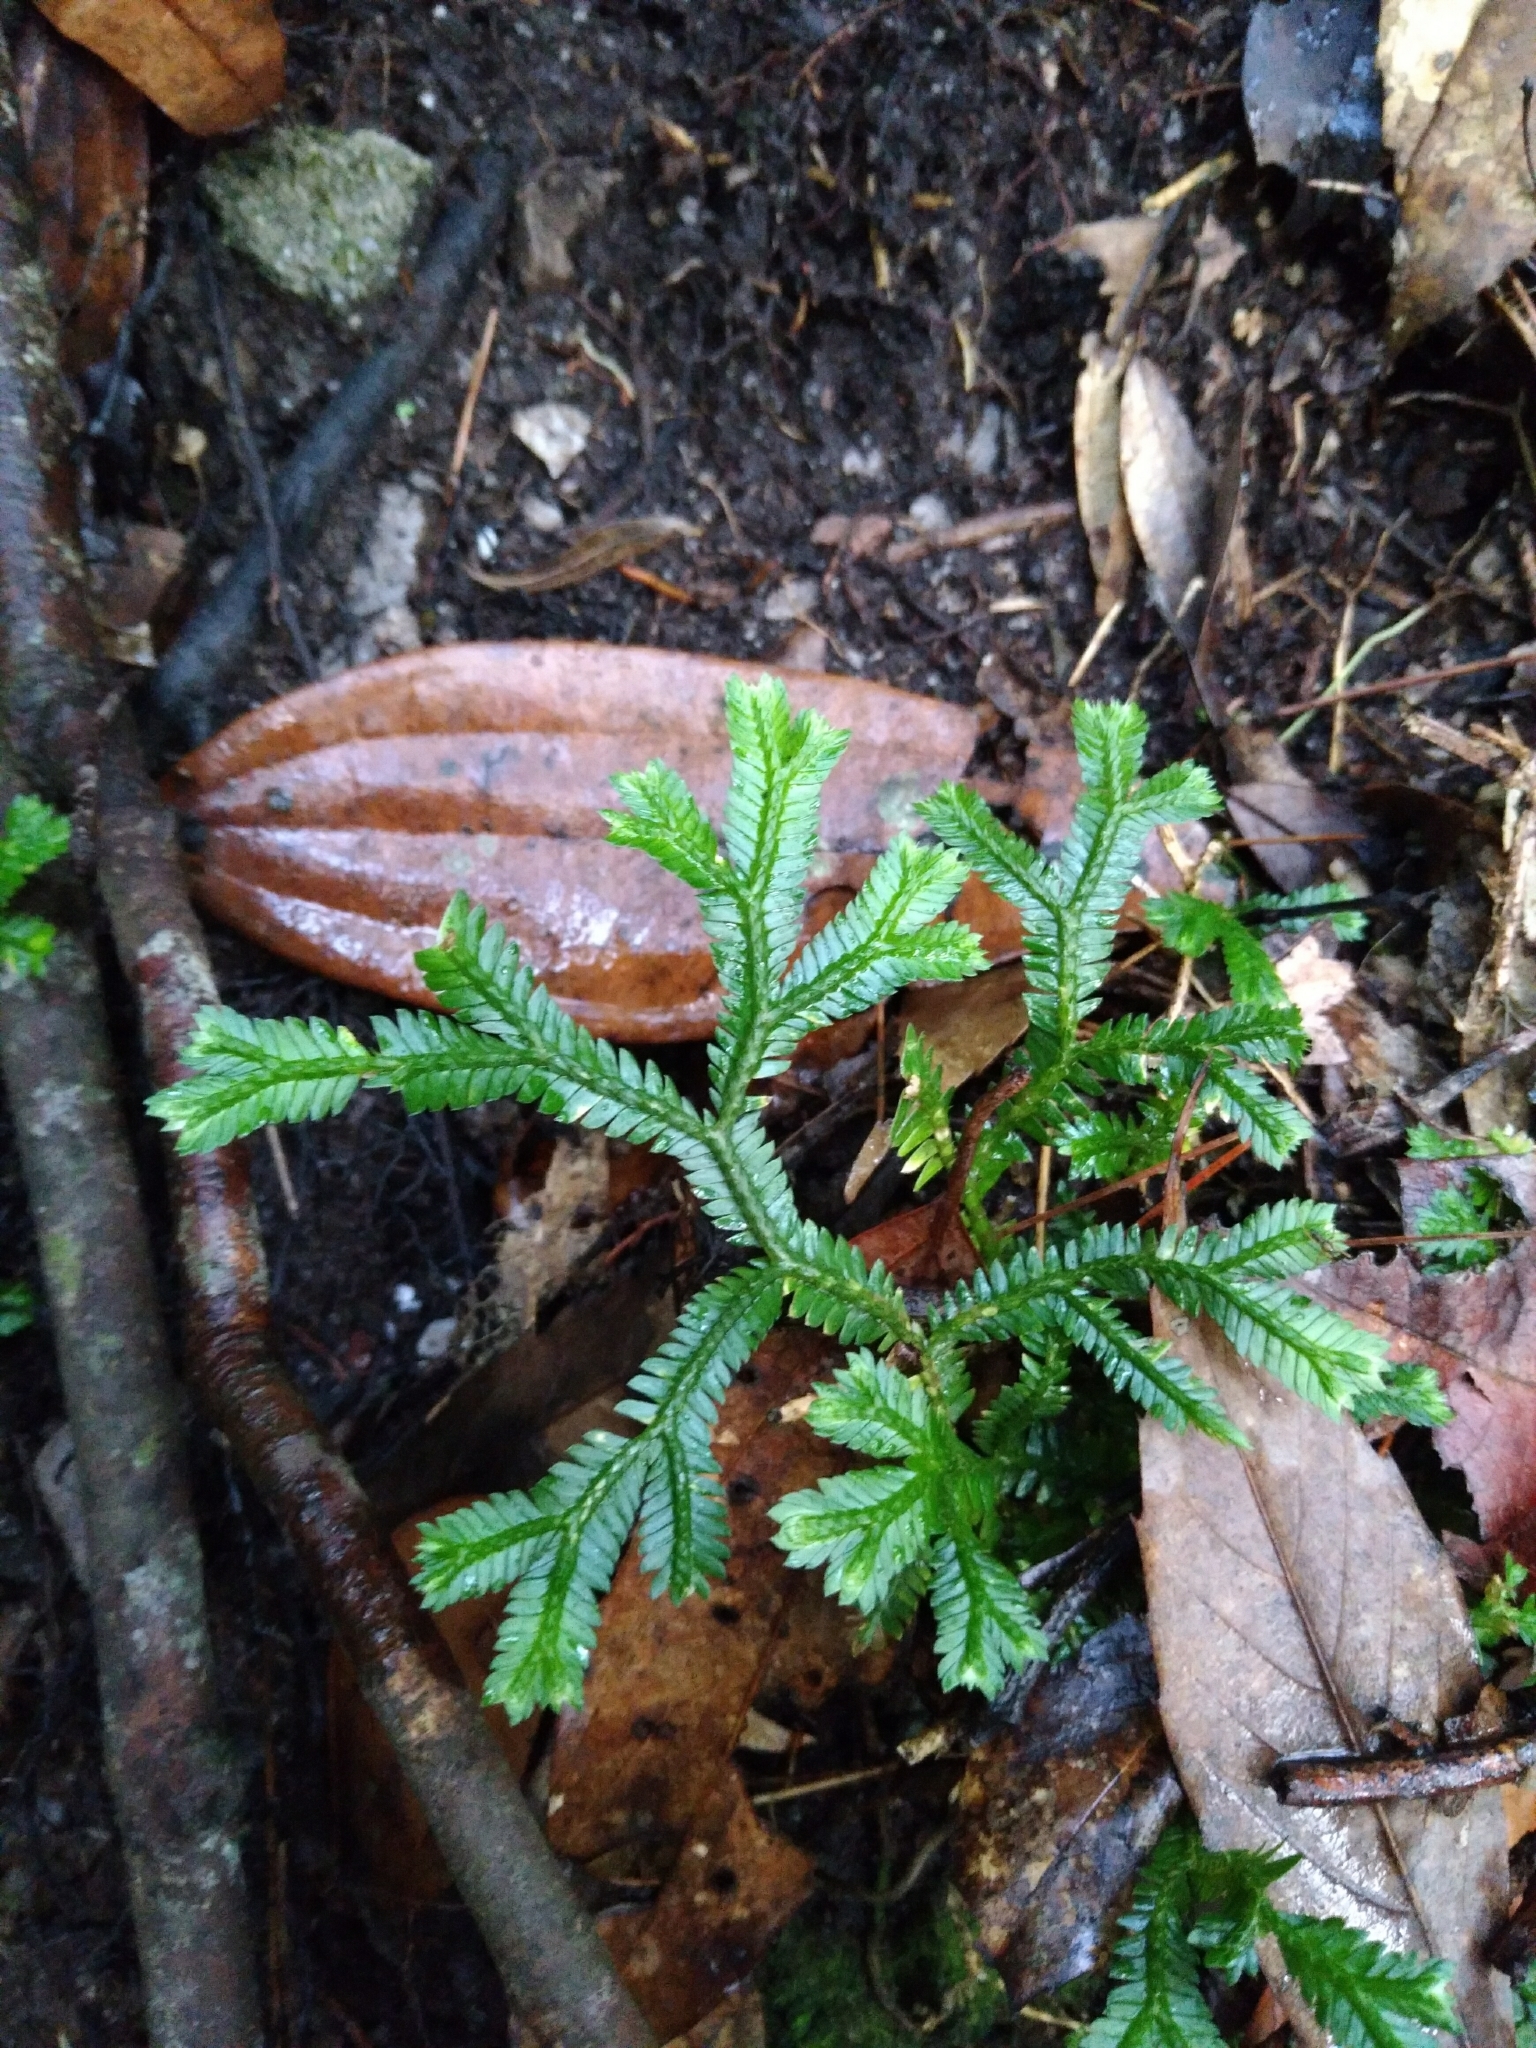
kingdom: Plantae
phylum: Tracheophyta
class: Lycopodiopsida
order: Selaginellales
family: Selaginellaceae
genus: Selaginella
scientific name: Selaginella doederleinii
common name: Greater selaginella
